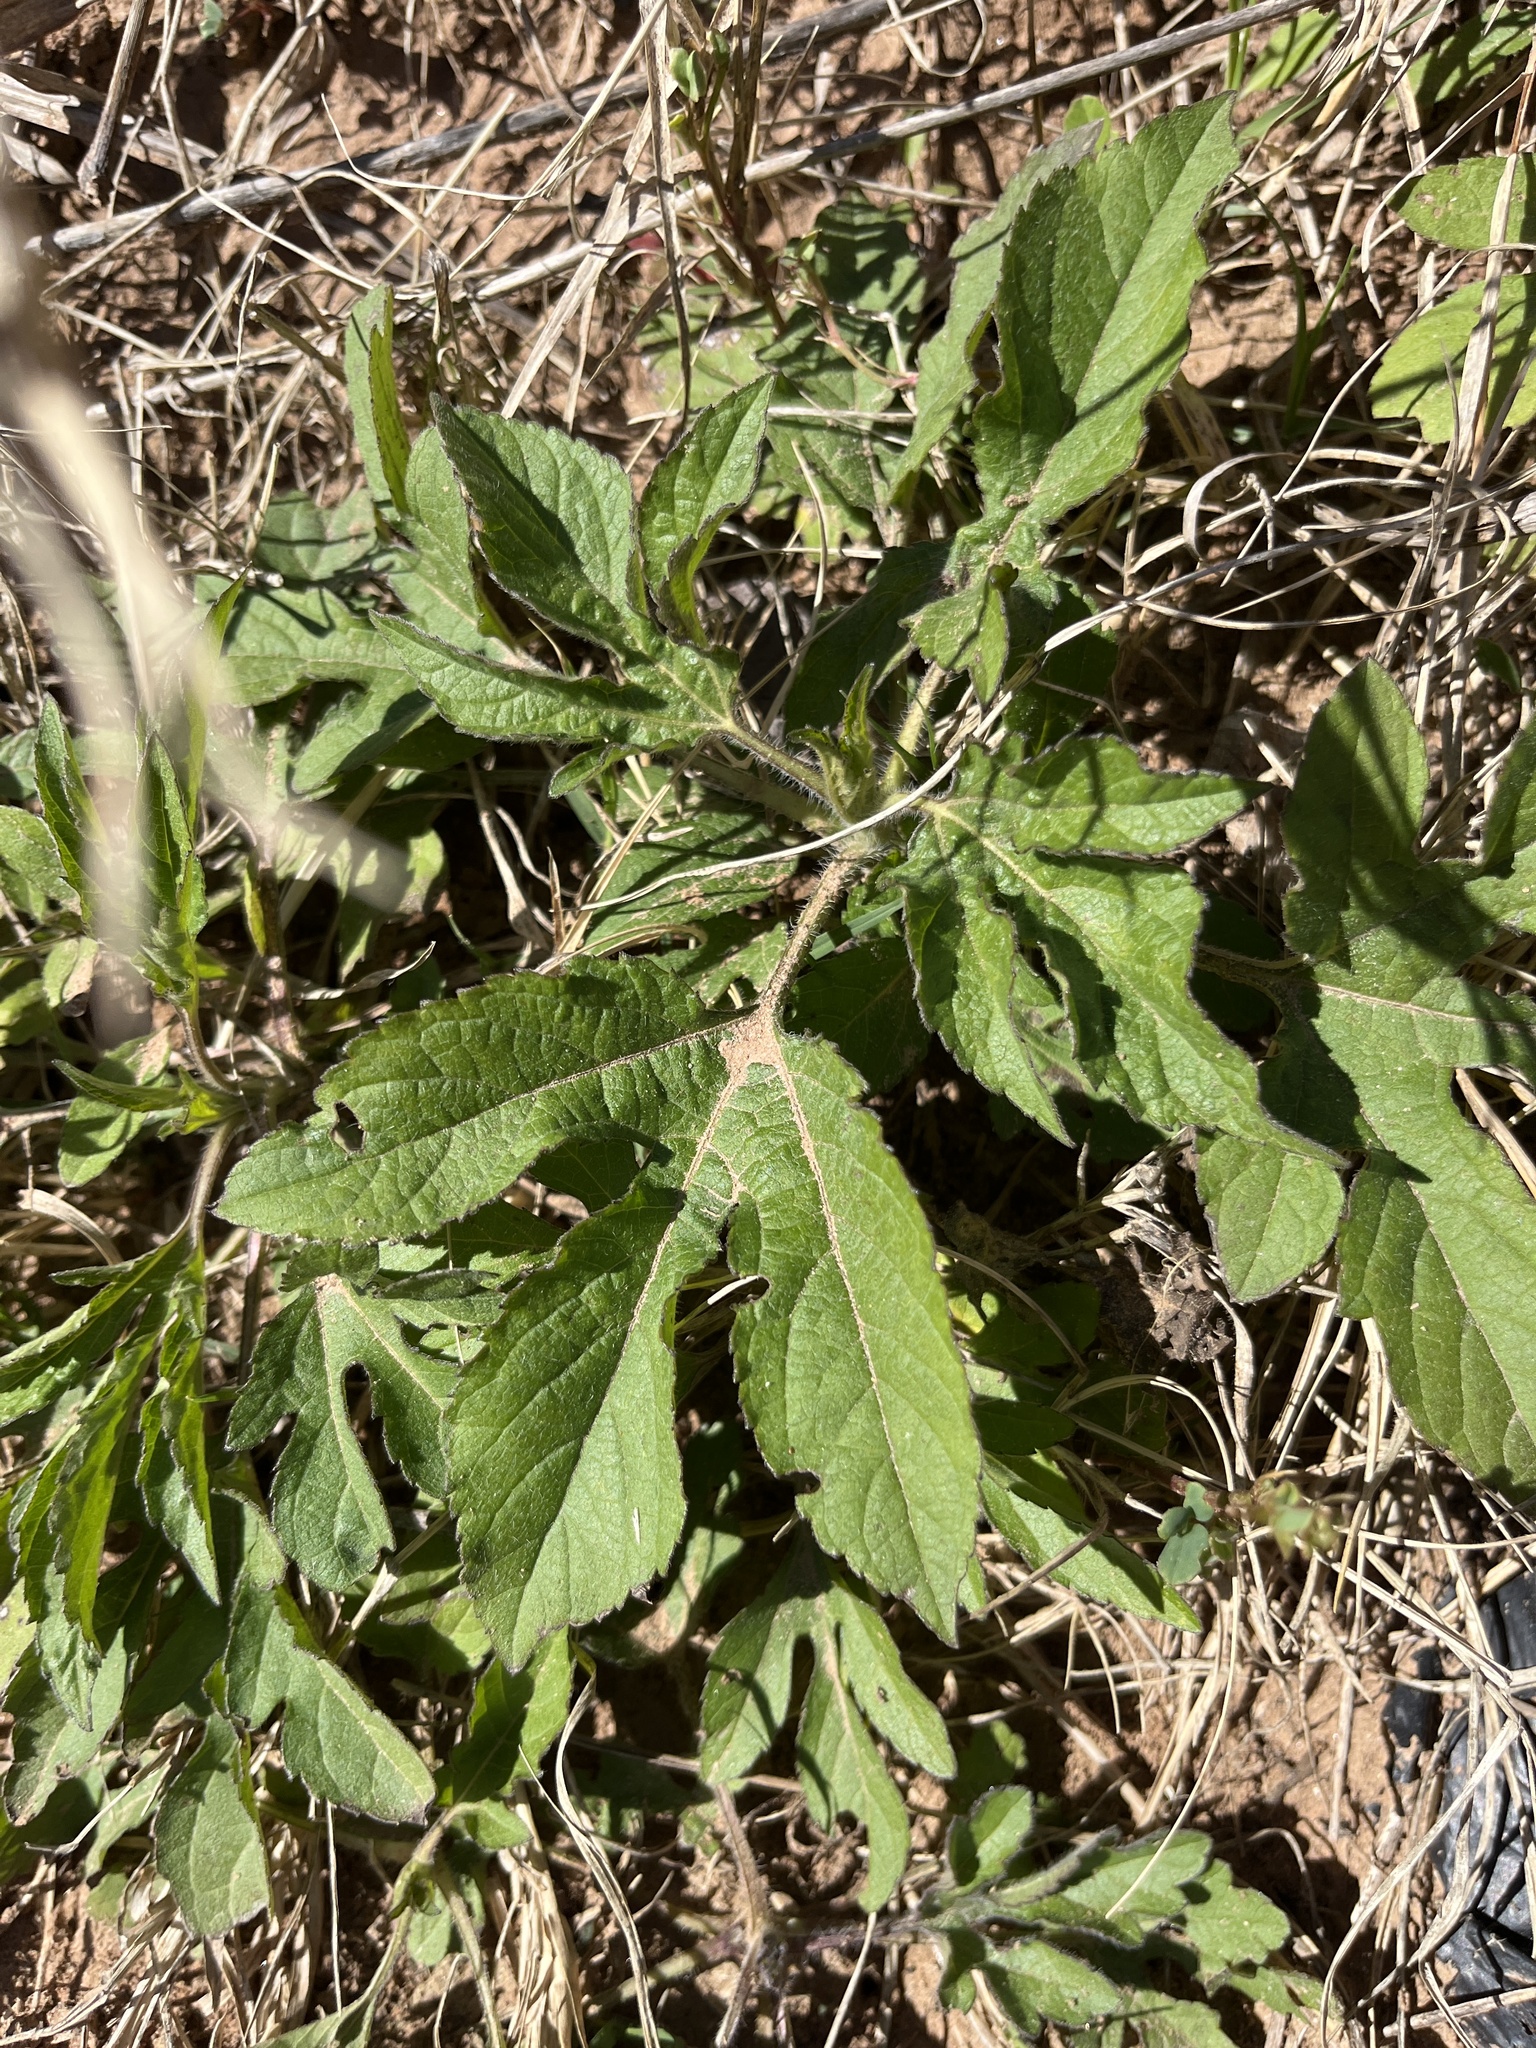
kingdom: Plantae
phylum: Tracheophyta
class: Magnoliopsida
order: Asterales
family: Asteraceae
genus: Ambrosia
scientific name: Ambrosia trifida
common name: Giant ragweed
